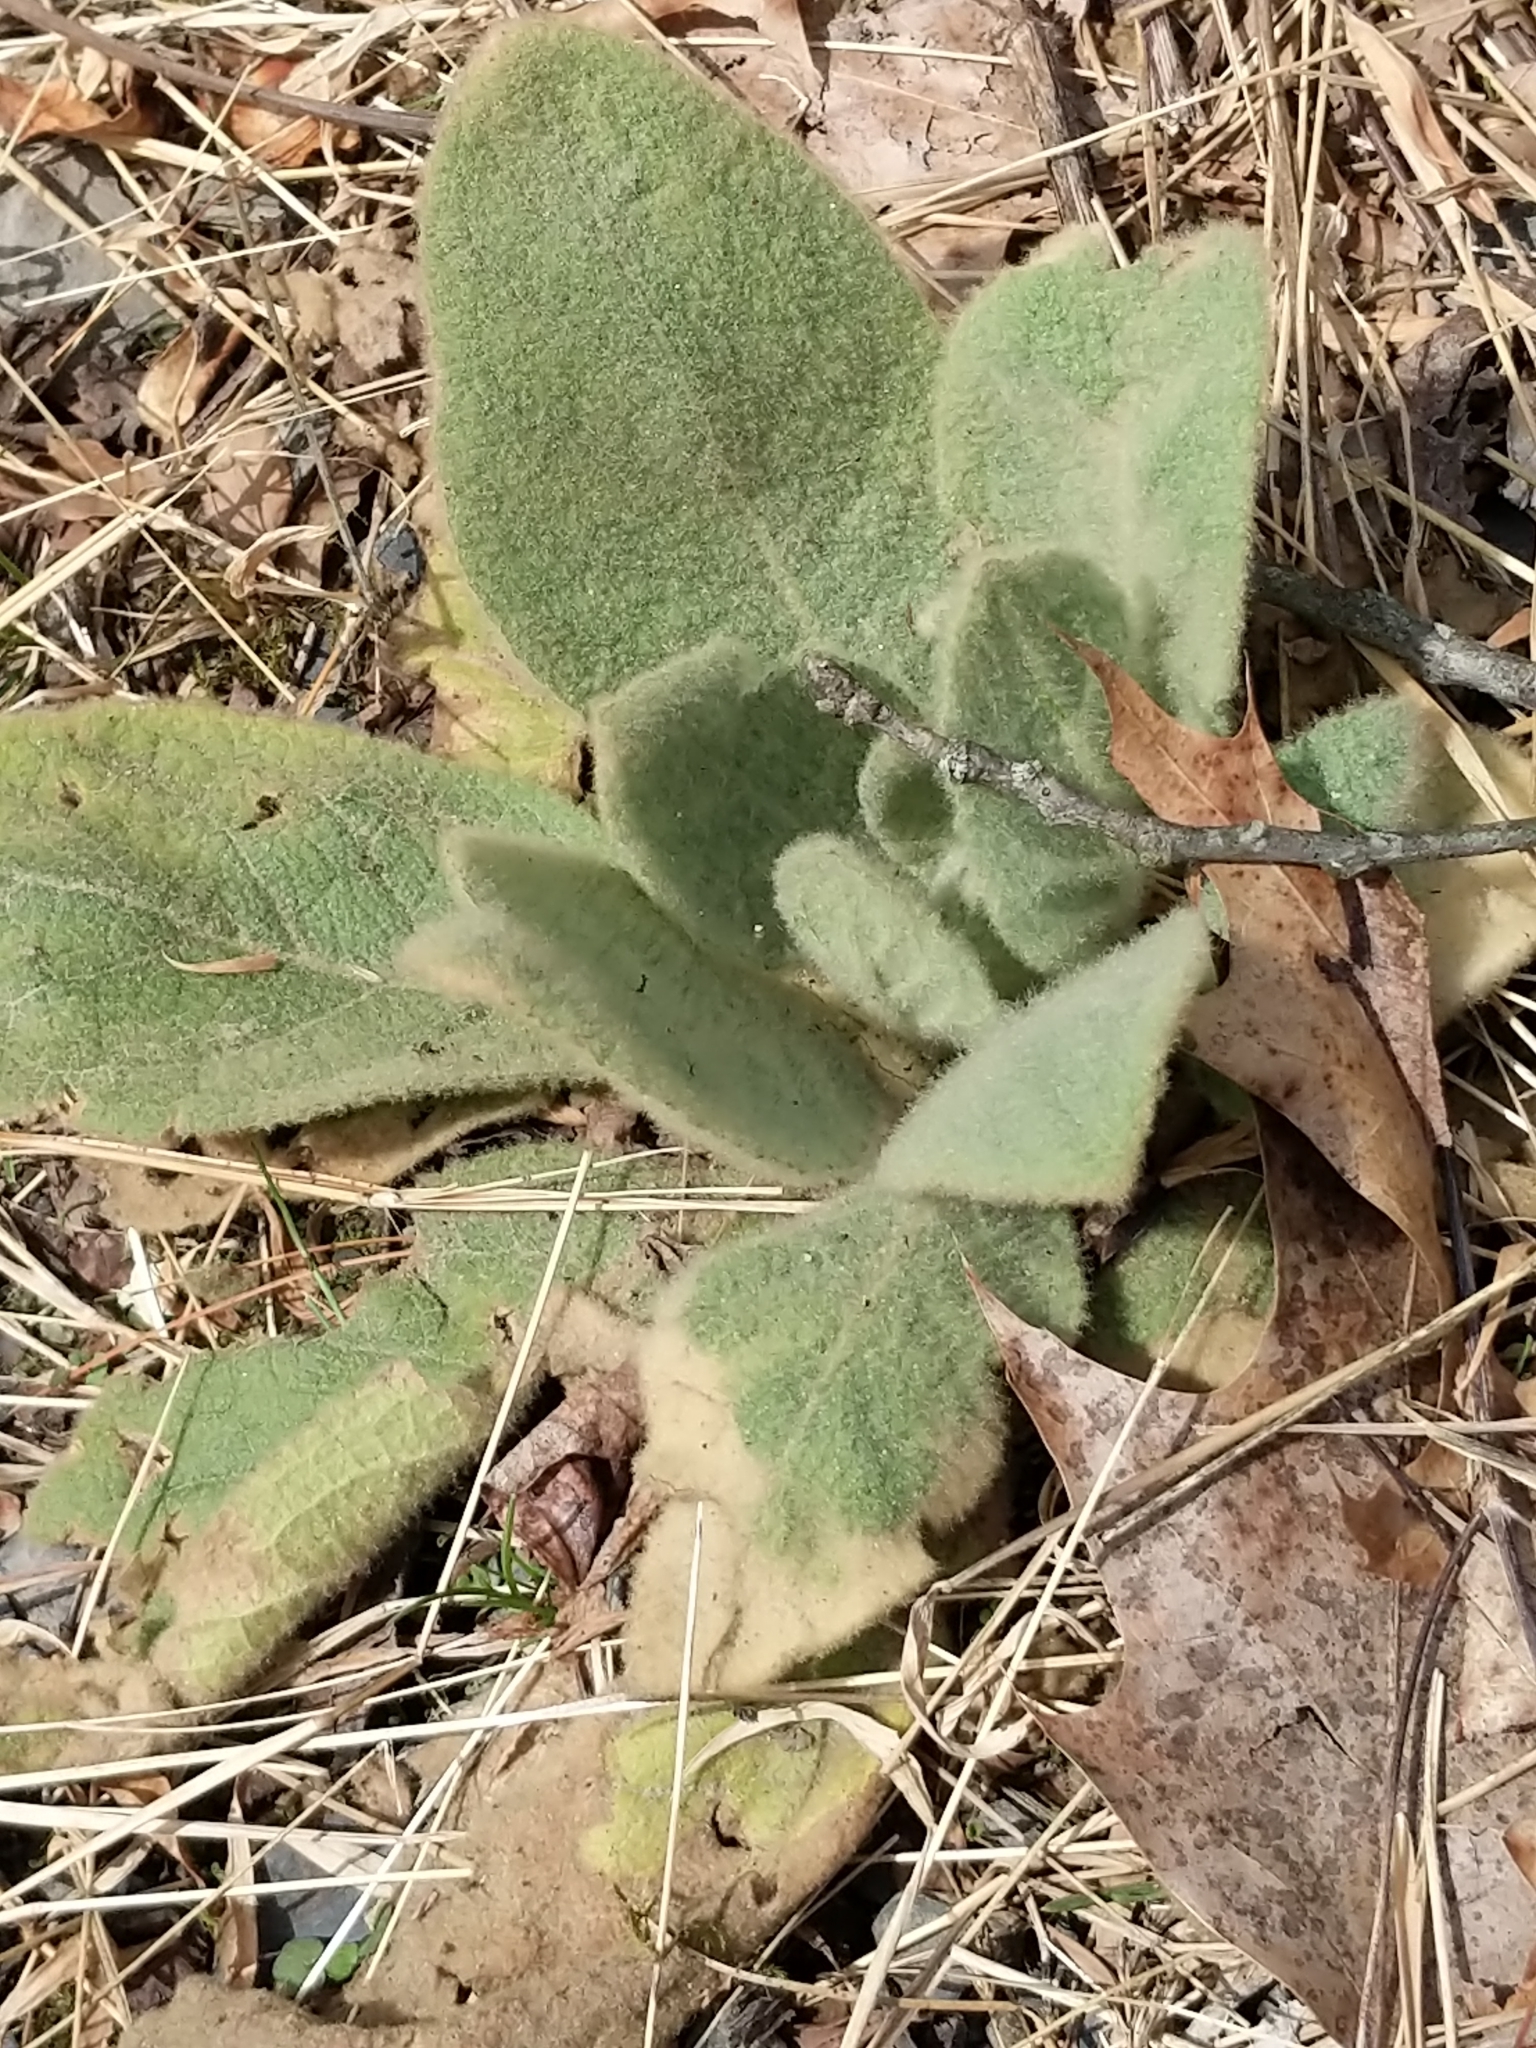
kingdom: Plantae
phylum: Tracheophyta
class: Magnoliopsida
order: Lamiales
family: Scrophulariaceae
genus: Verbascum
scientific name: Verbascum thapsus
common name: Common mullein
